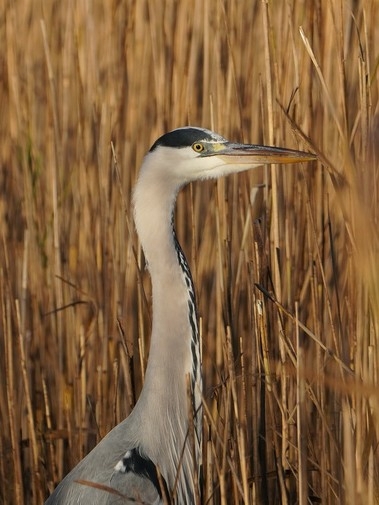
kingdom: Animalia
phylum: Chordata
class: Aves
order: Pelecaniformes
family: Ardeidae
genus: Ardea
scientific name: Ardea cinerea
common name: Grey heron
